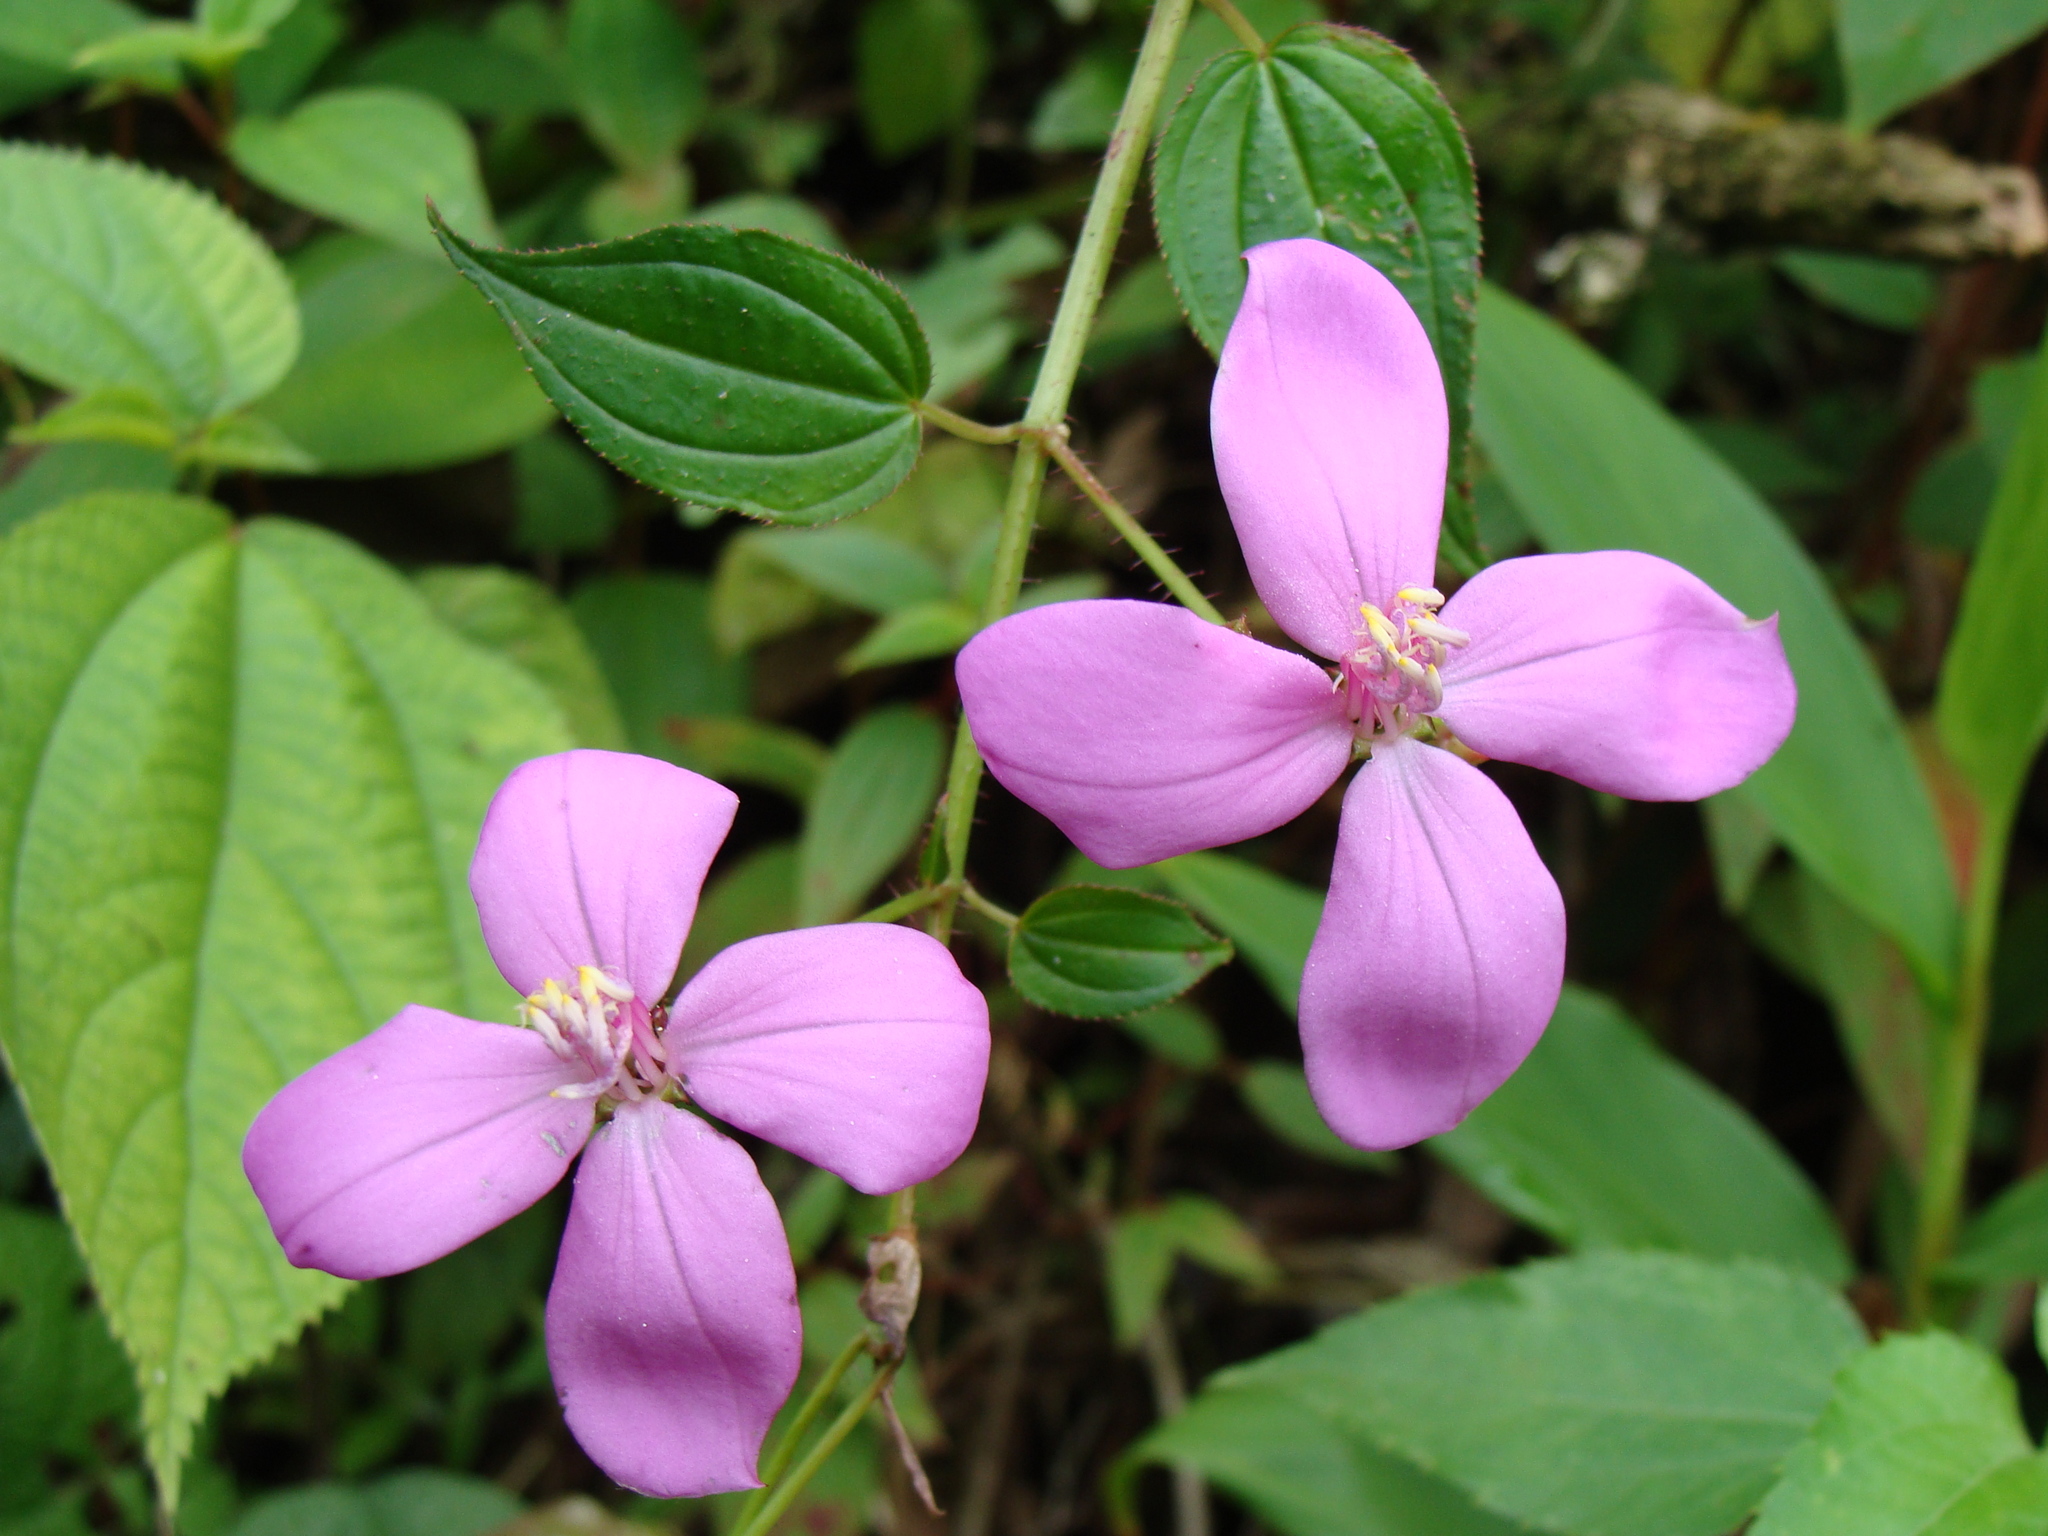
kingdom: Plantae
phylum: Tracheophyta
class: Magnoliopsida
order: Myrtales
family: Melastomataceae
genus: Arthrostemma
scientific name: Arthrostemma ciliatum
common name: Everblooming eavender
